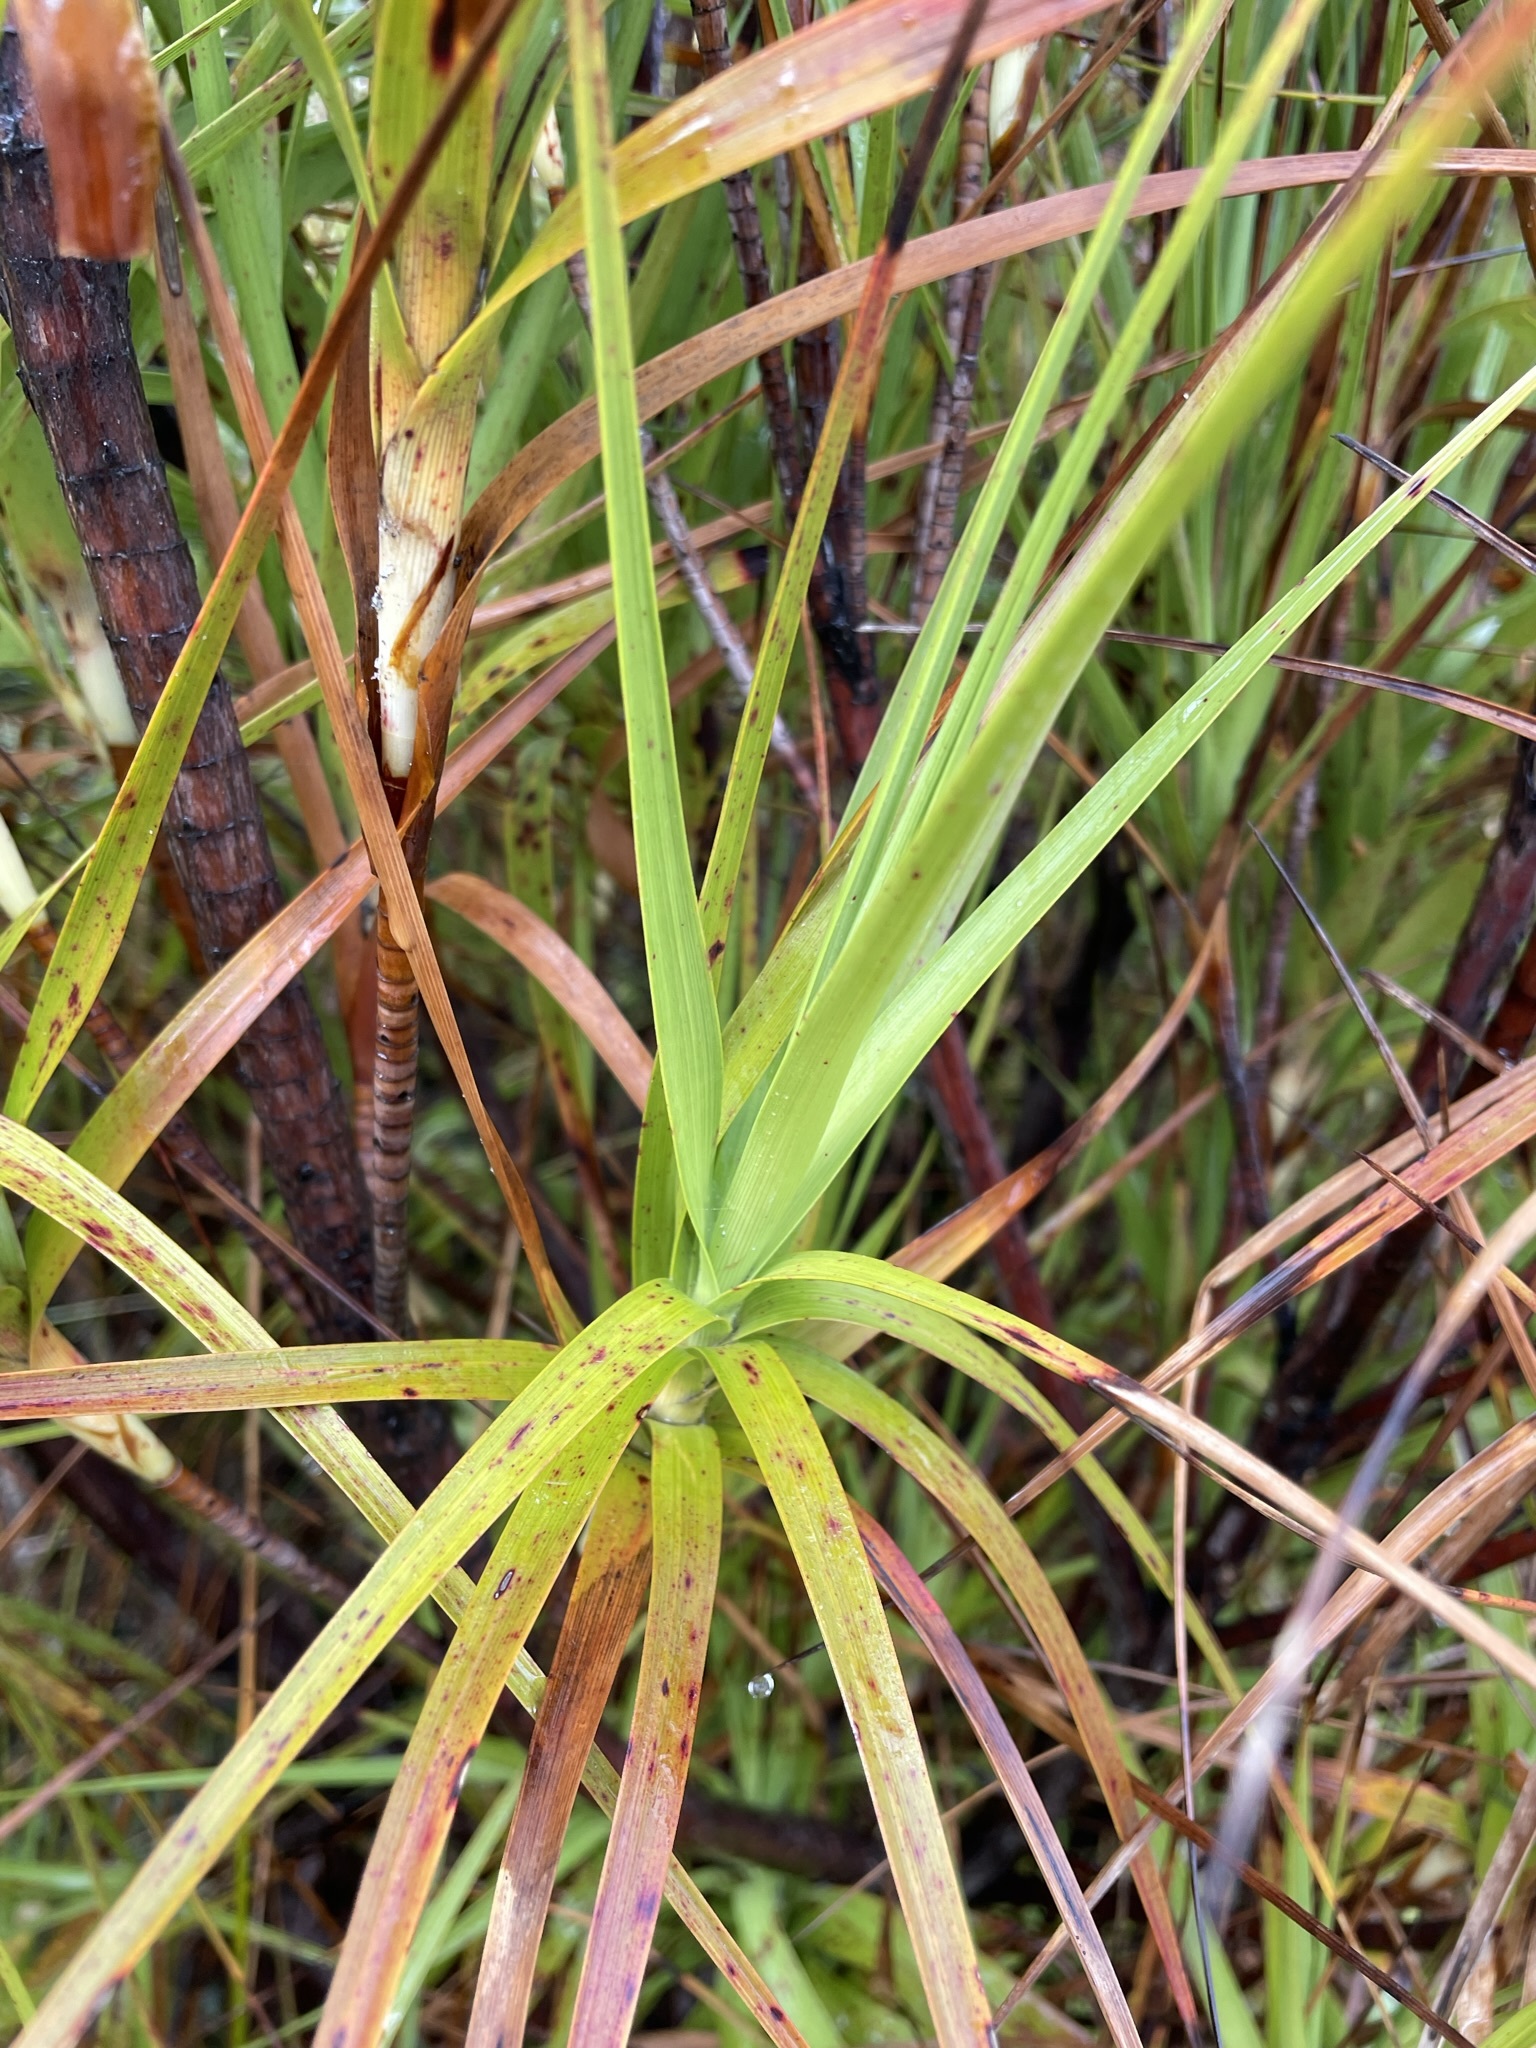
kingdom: Plantae
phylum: Tracheophyta
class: Magnoliopsida
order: Ericales
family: Ericaceae
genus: Dracophyllum
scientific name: Dracophyllum longifolium
